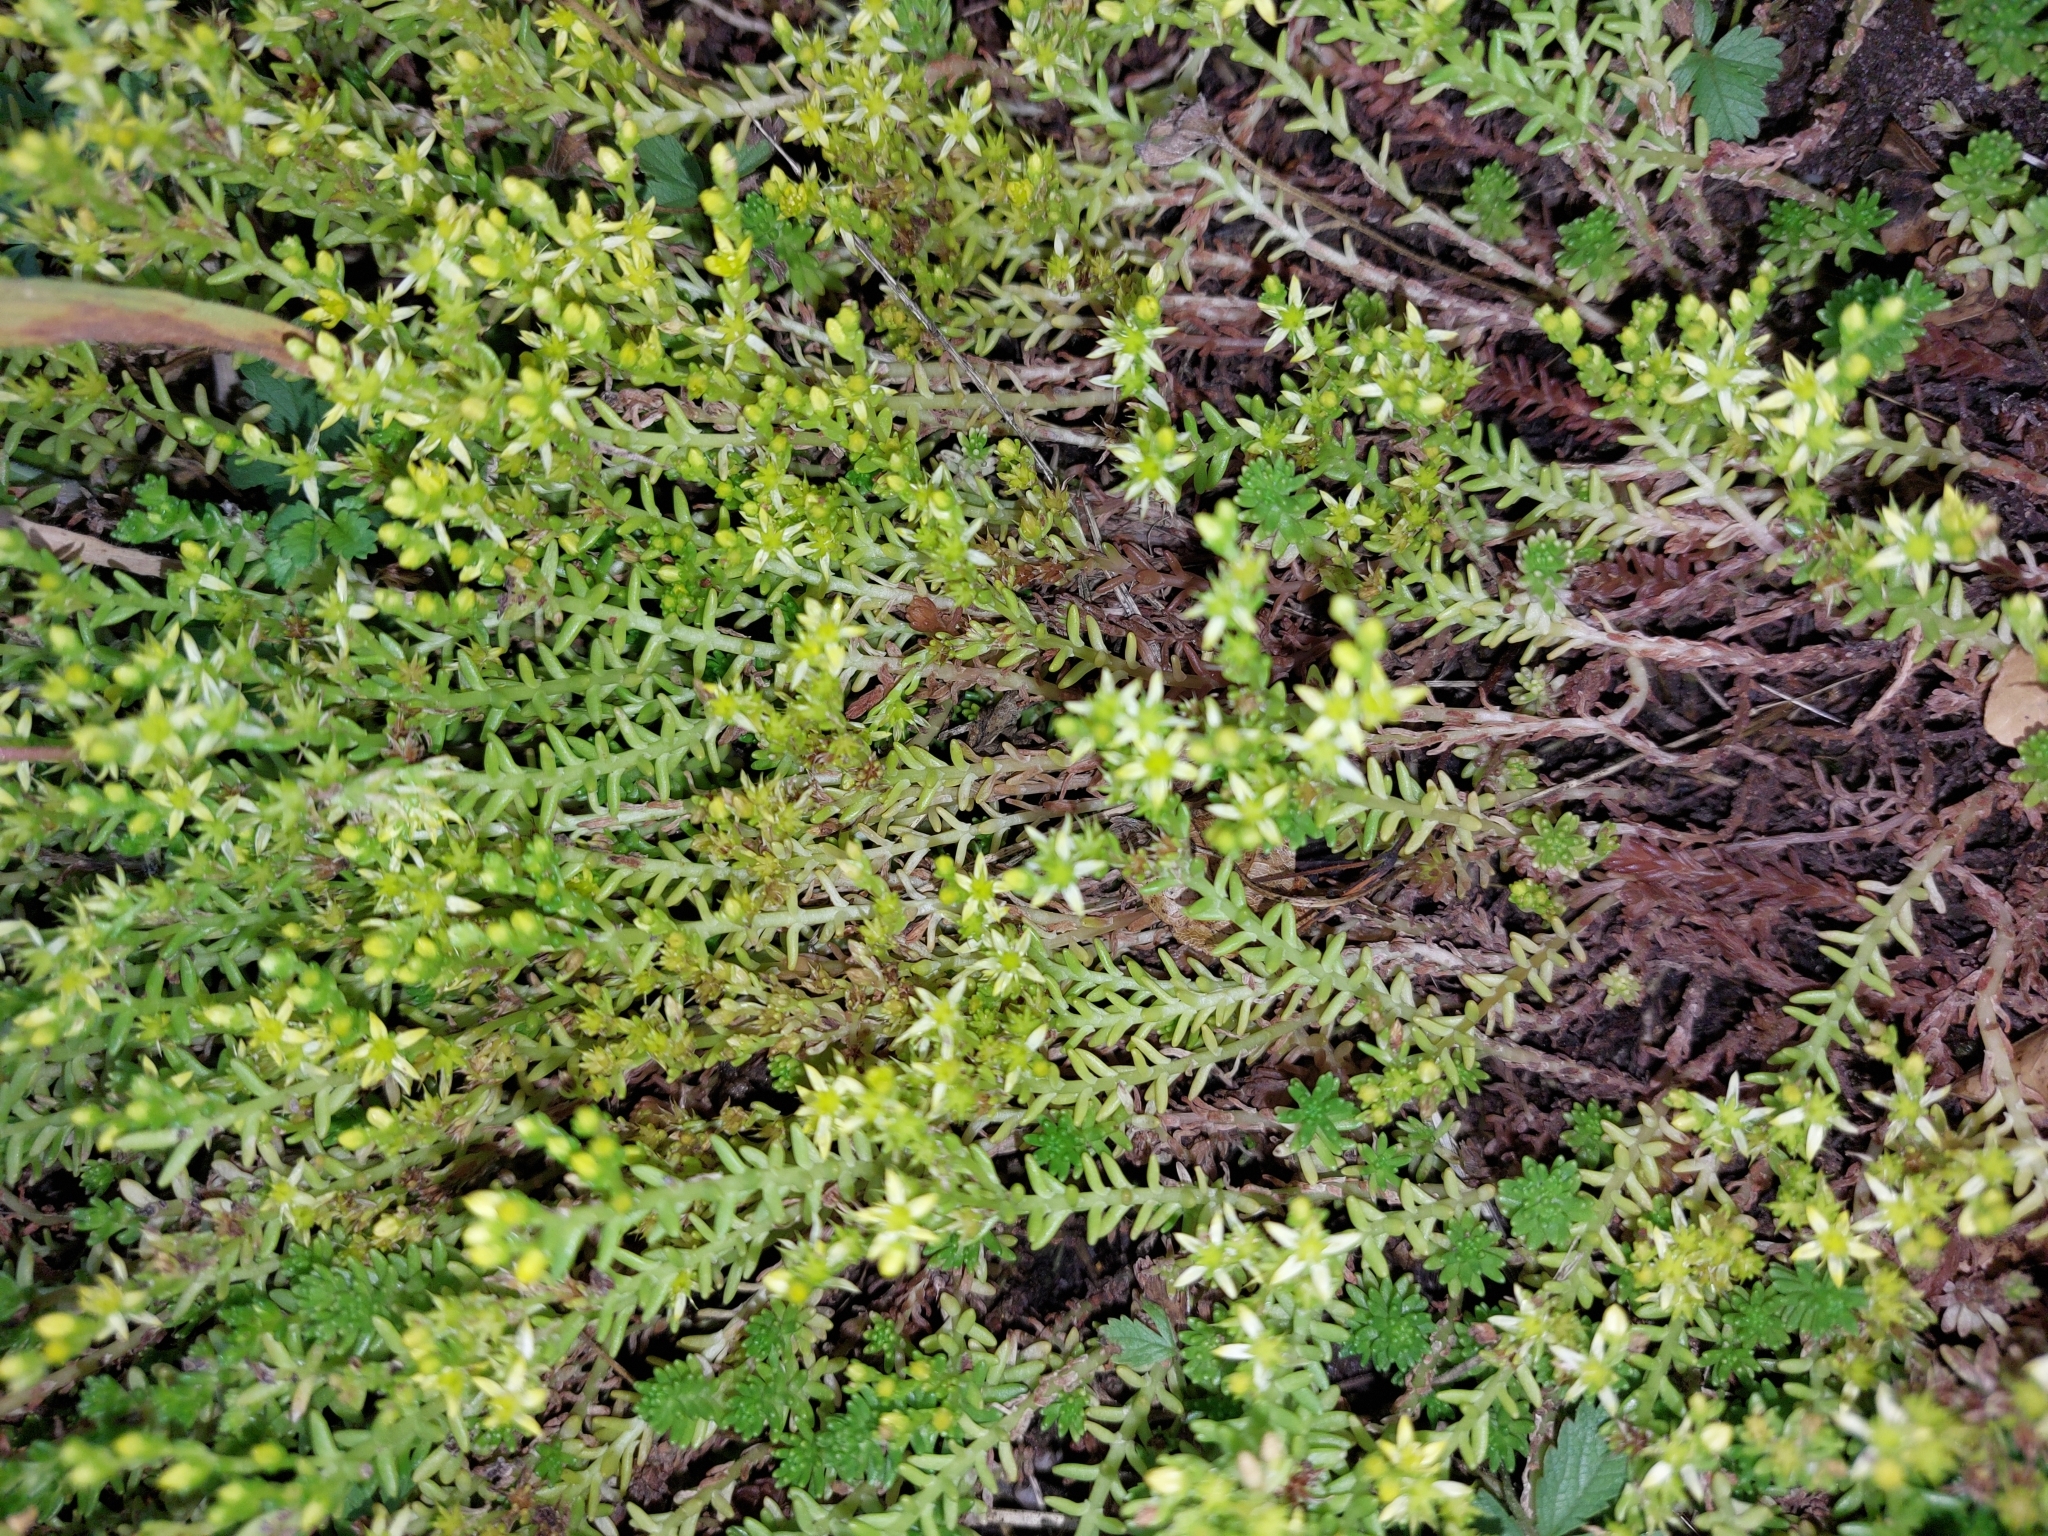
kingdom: Plantae
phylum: Tracheophyta
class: Magnoliopsida
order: Saxifragales
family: Crassulaceae
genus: Sedum
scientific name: Sedum sexangulare
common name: Tasteless stonecrop
